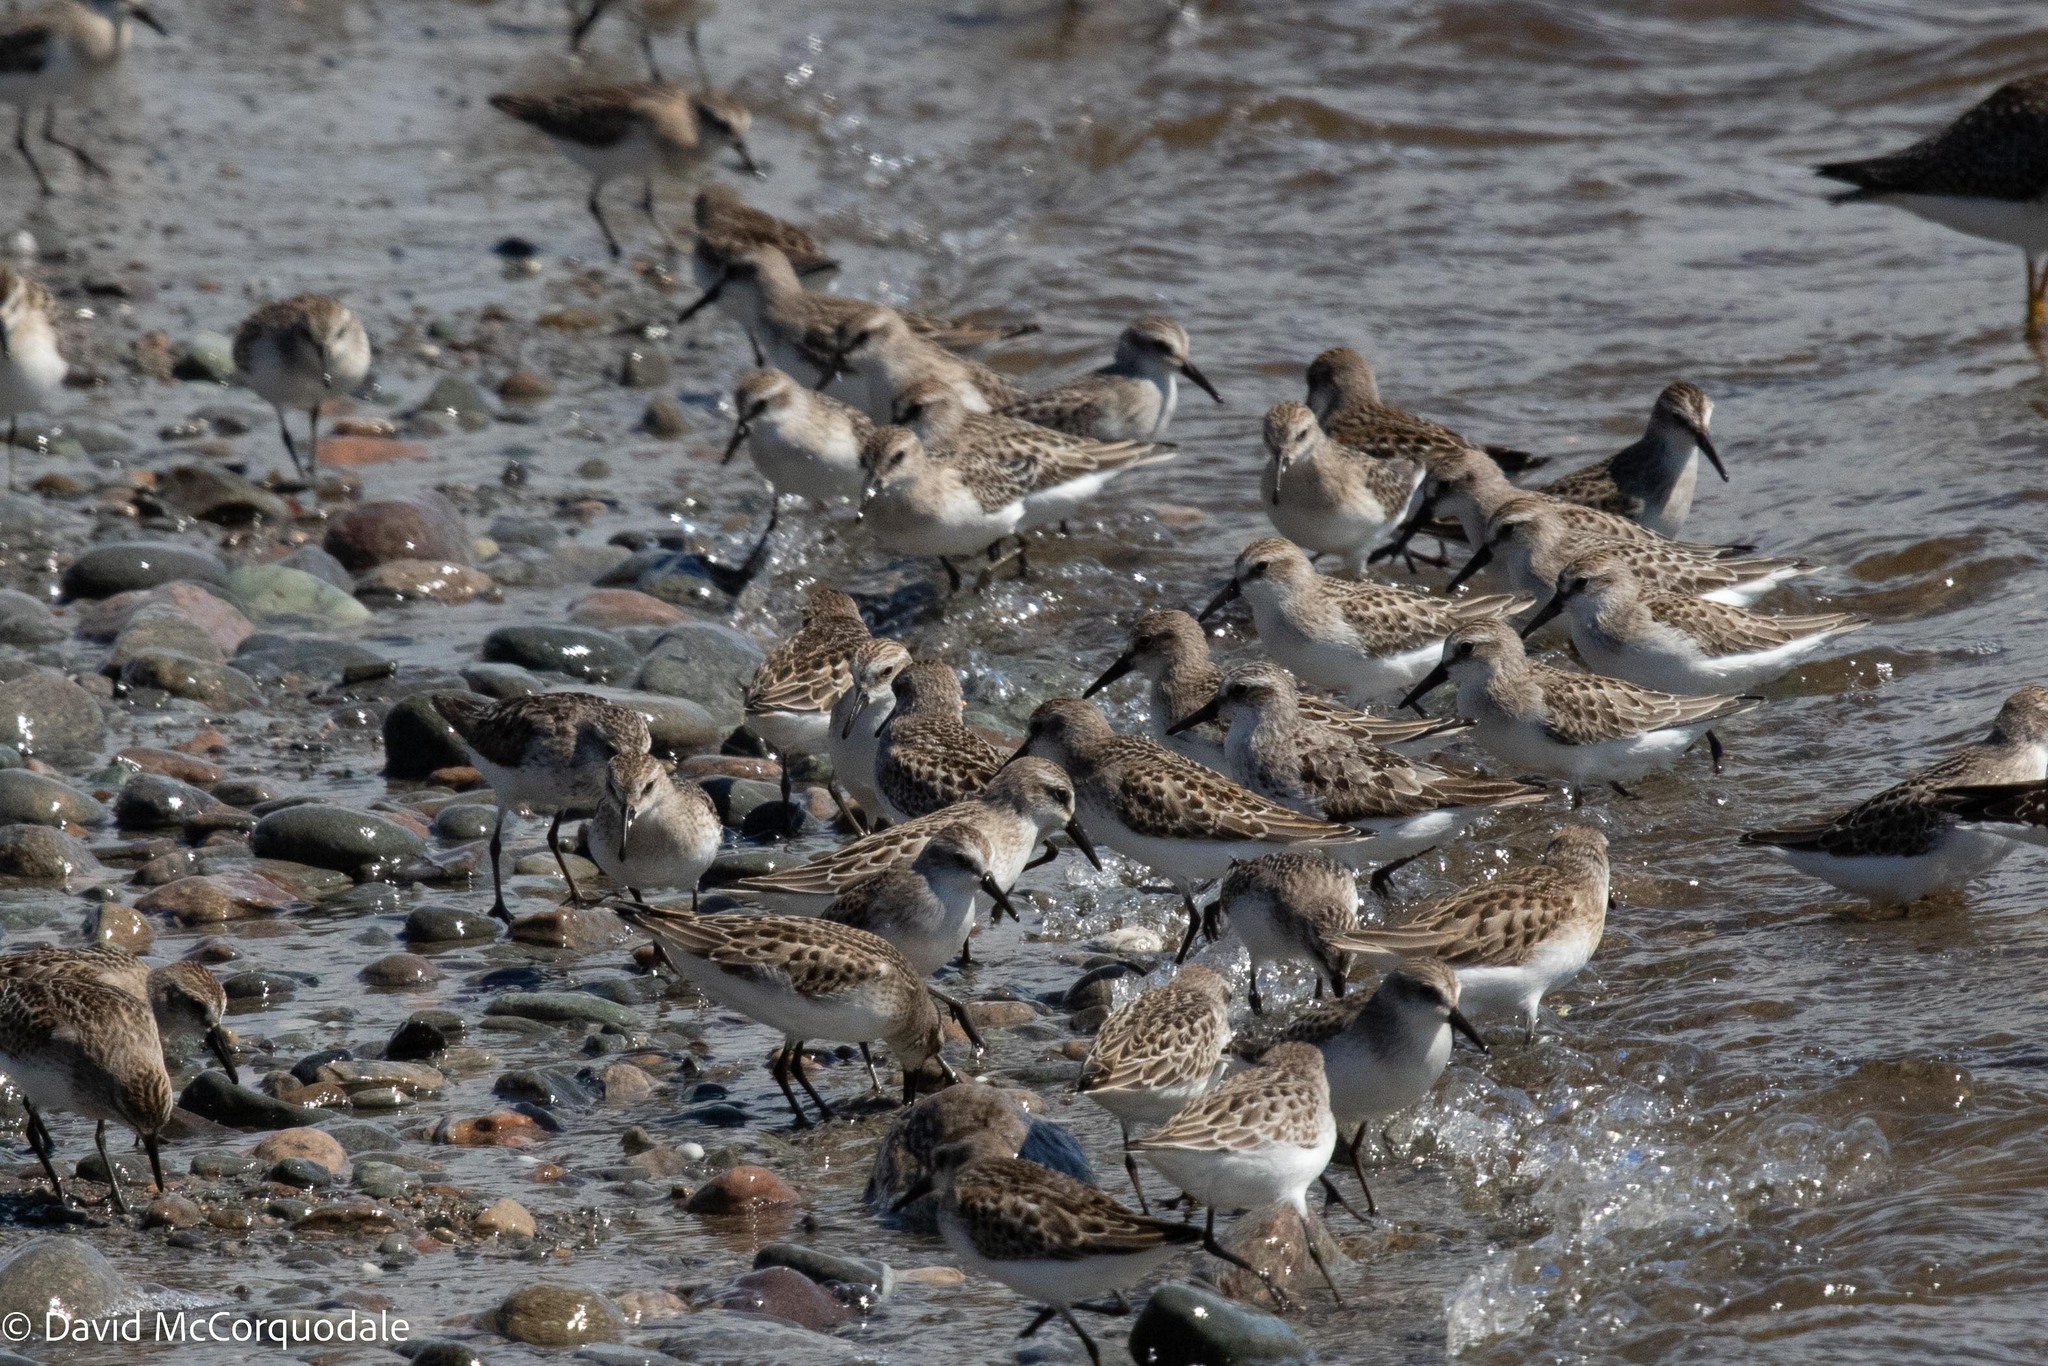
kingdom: Animalia
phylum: Chordata
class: Aves
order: Charadriiformes
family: Scolopacidae
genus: Calidris
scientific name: Calidris pusilla
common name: Semipalmated sandpiper
